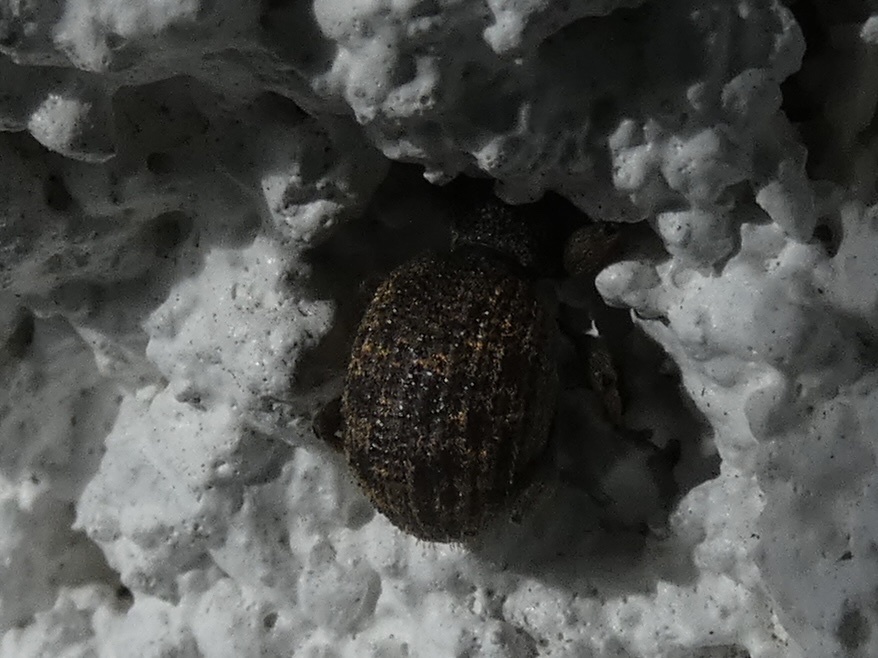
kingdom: Animalia
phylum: Arthropoda
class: Insecta
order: Coleoptera
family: Curculionidae
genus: Otiorhynchus
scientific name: Otiorhynchus crataegi
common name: Privet weevil
